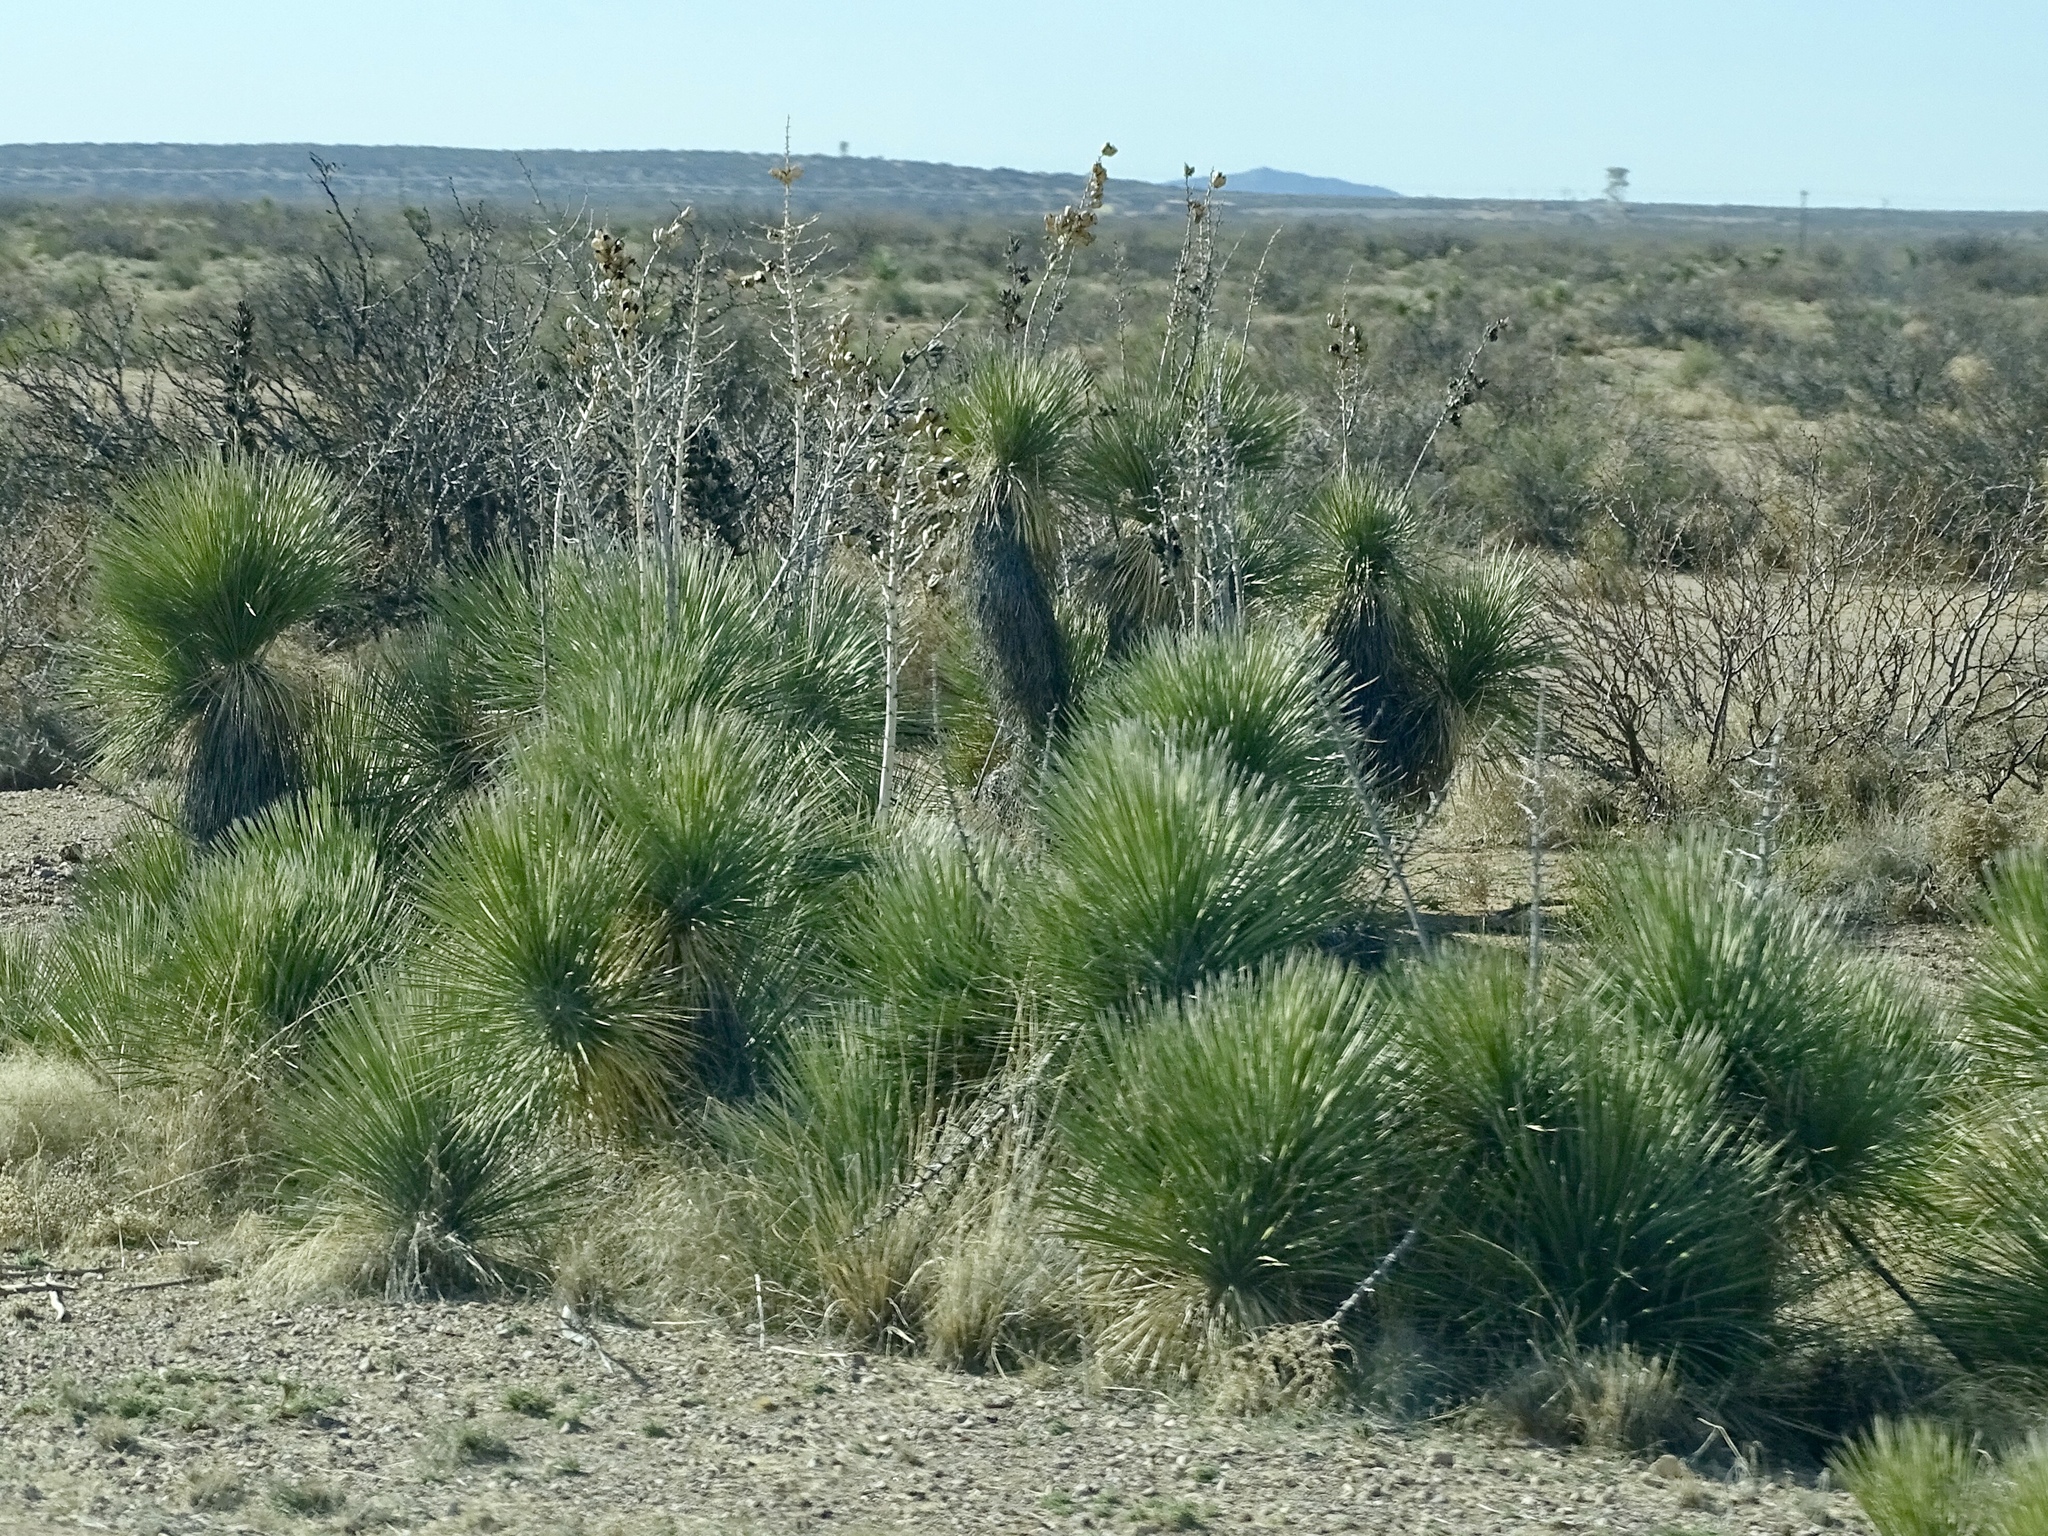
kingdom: Plantae
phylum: Tracheophyta
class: Liliopsida
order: Asparagales
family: Asparagaceae
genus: Yucca
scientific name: Yucca elata
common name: Palmella
